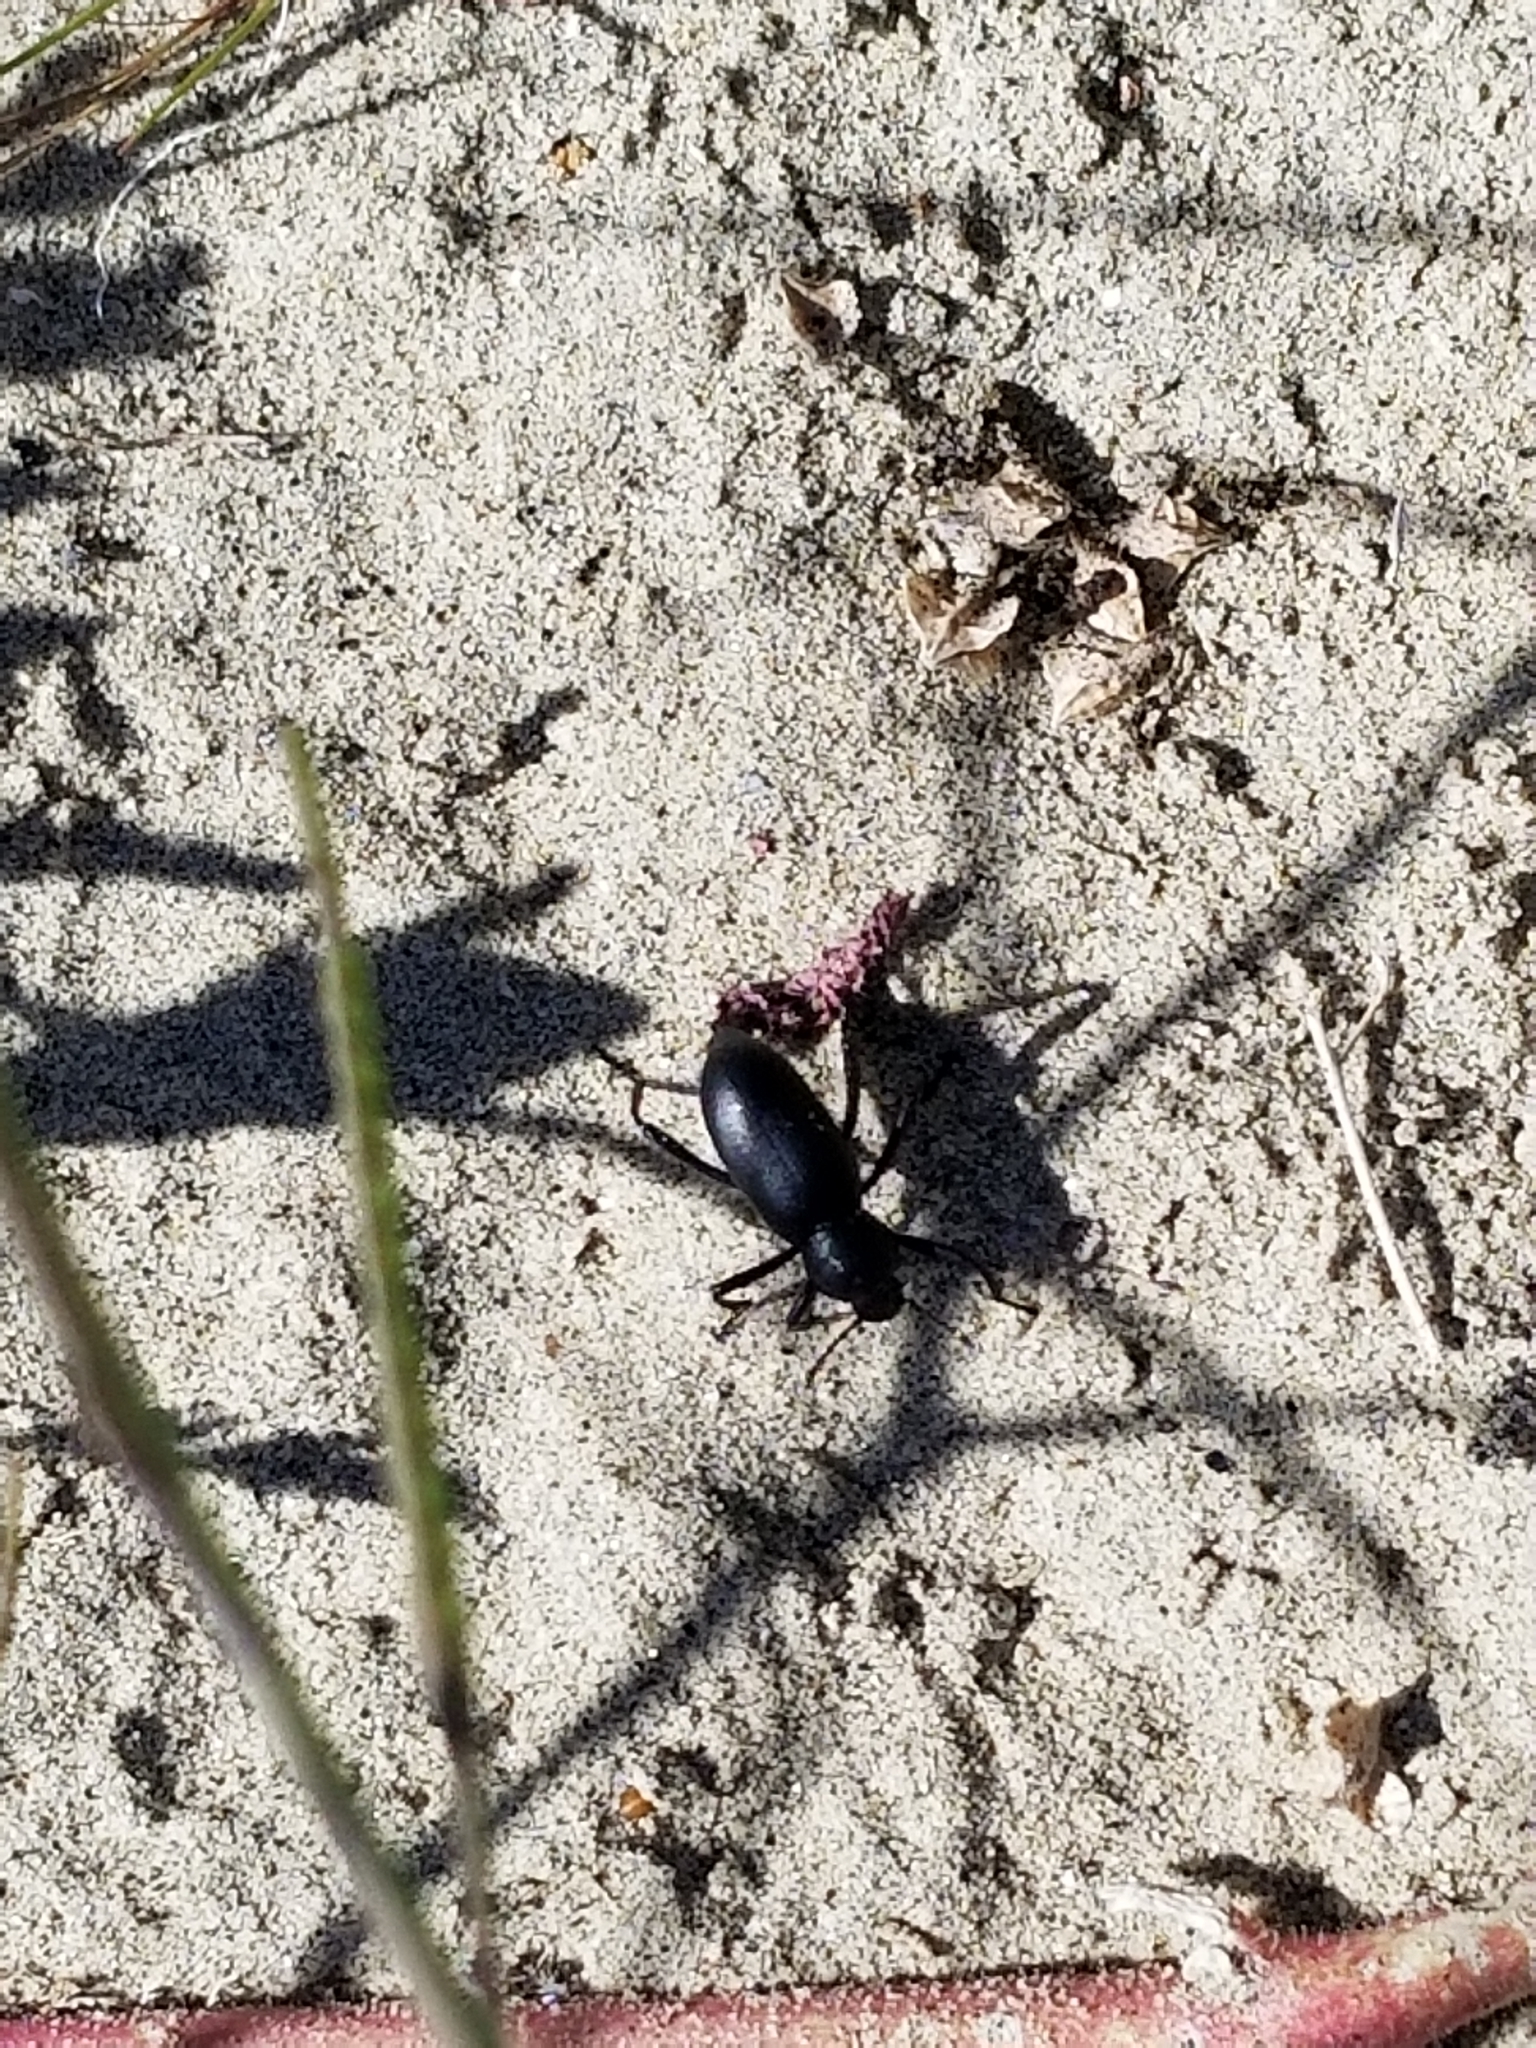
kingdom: Animalia
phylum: Arthropoda
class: Insecta
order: Coleoptera
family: Tenebrionidae
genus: Eleodes
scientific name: Eleodes armata
